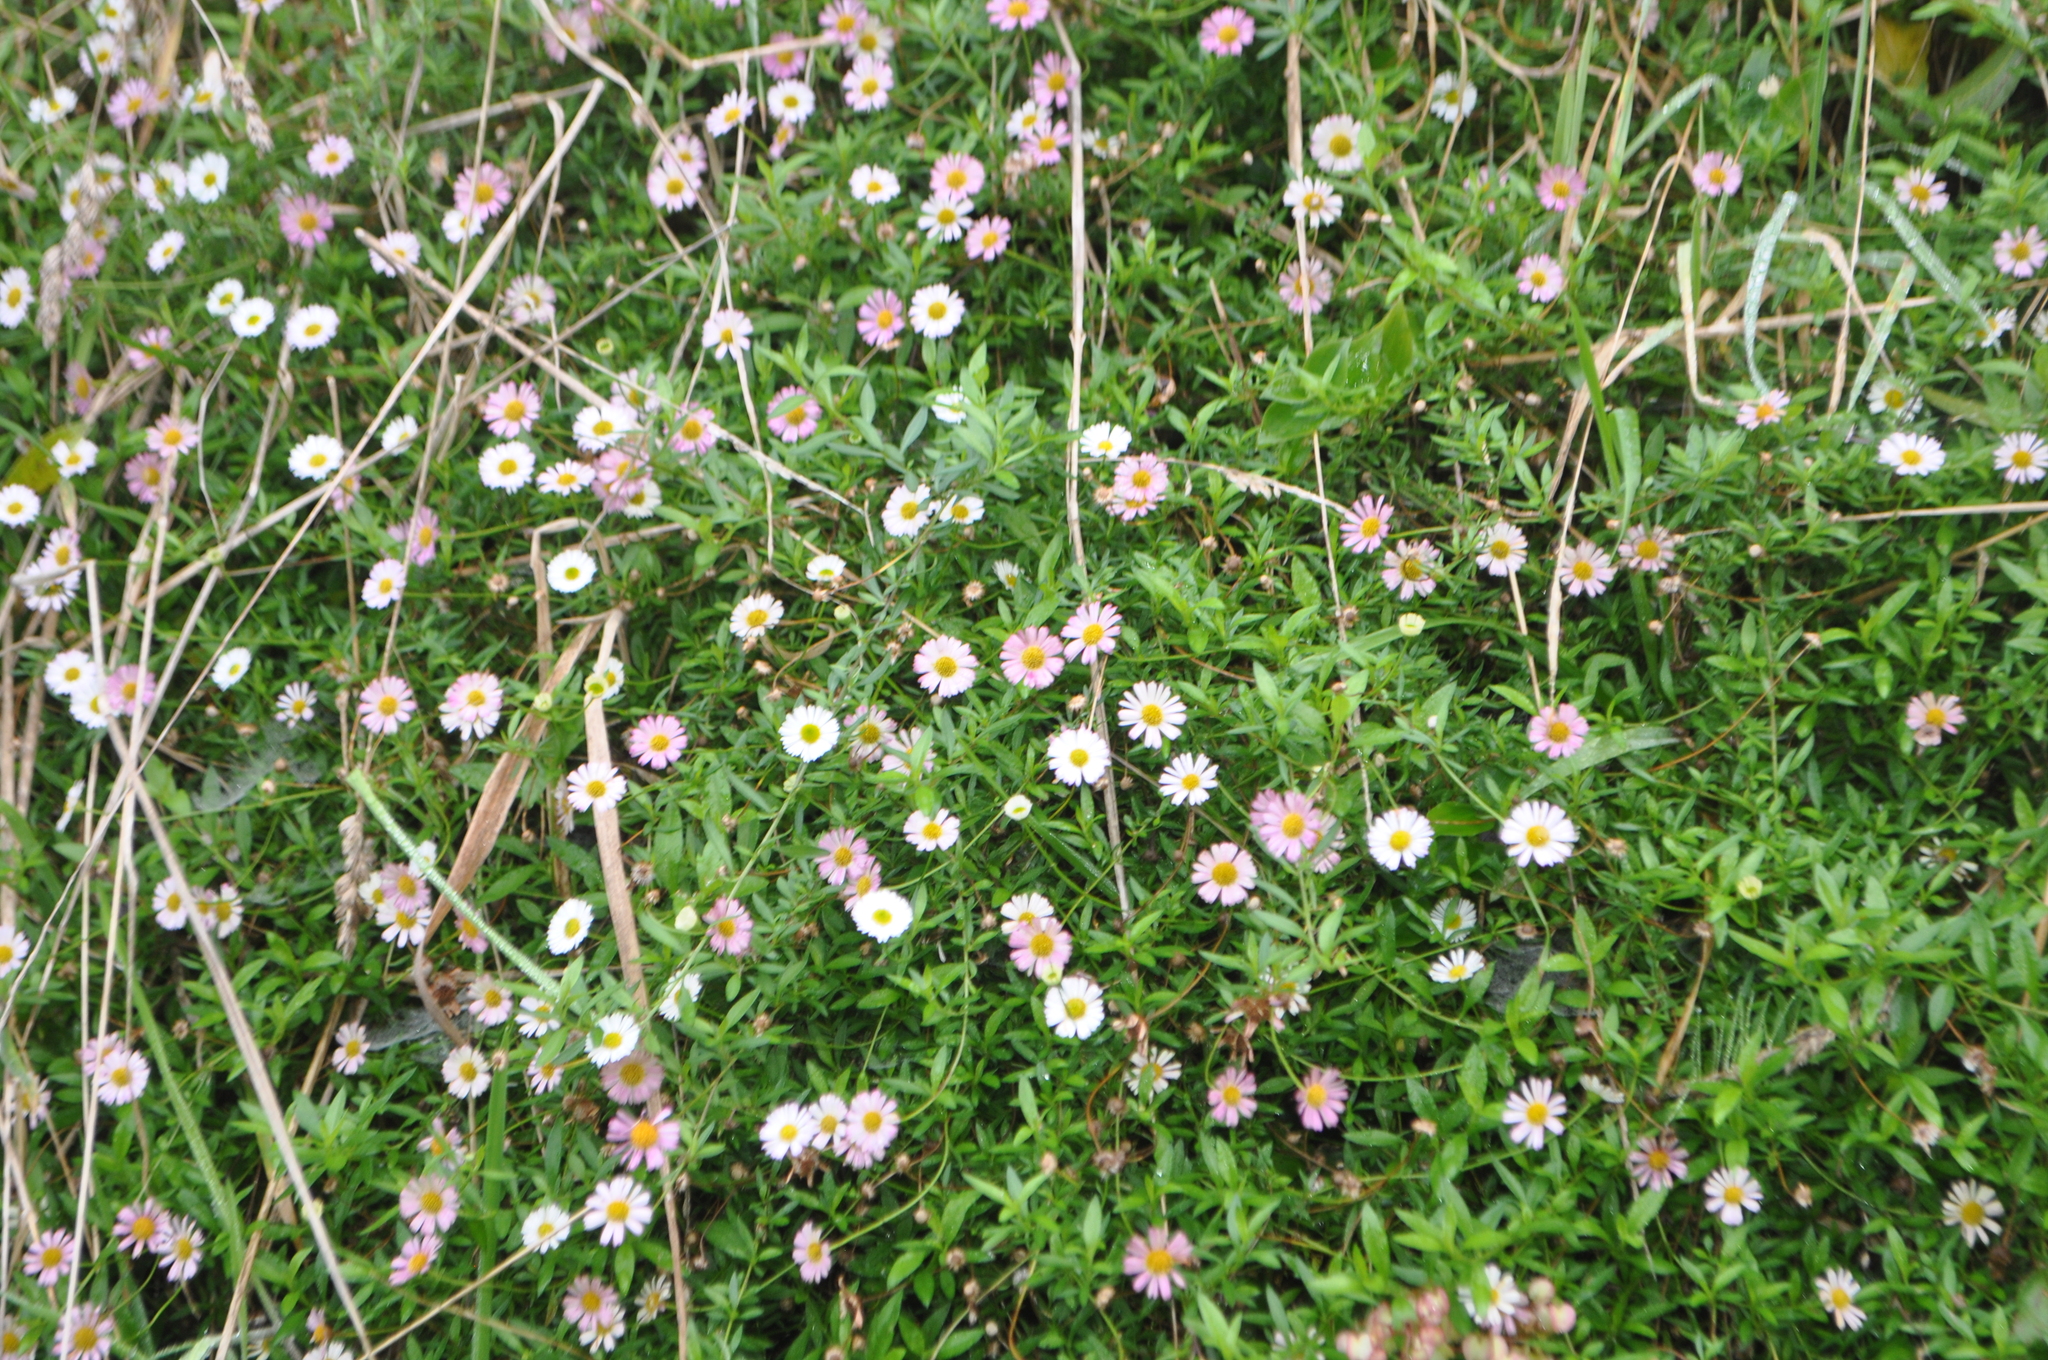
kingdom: Plantae
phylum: Tracheophyta
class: Magnoliopsida
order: Asterales
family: Asteraceae
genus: Erigeron
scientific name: Erigeron karvinskianus
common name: Mexican fleabane
